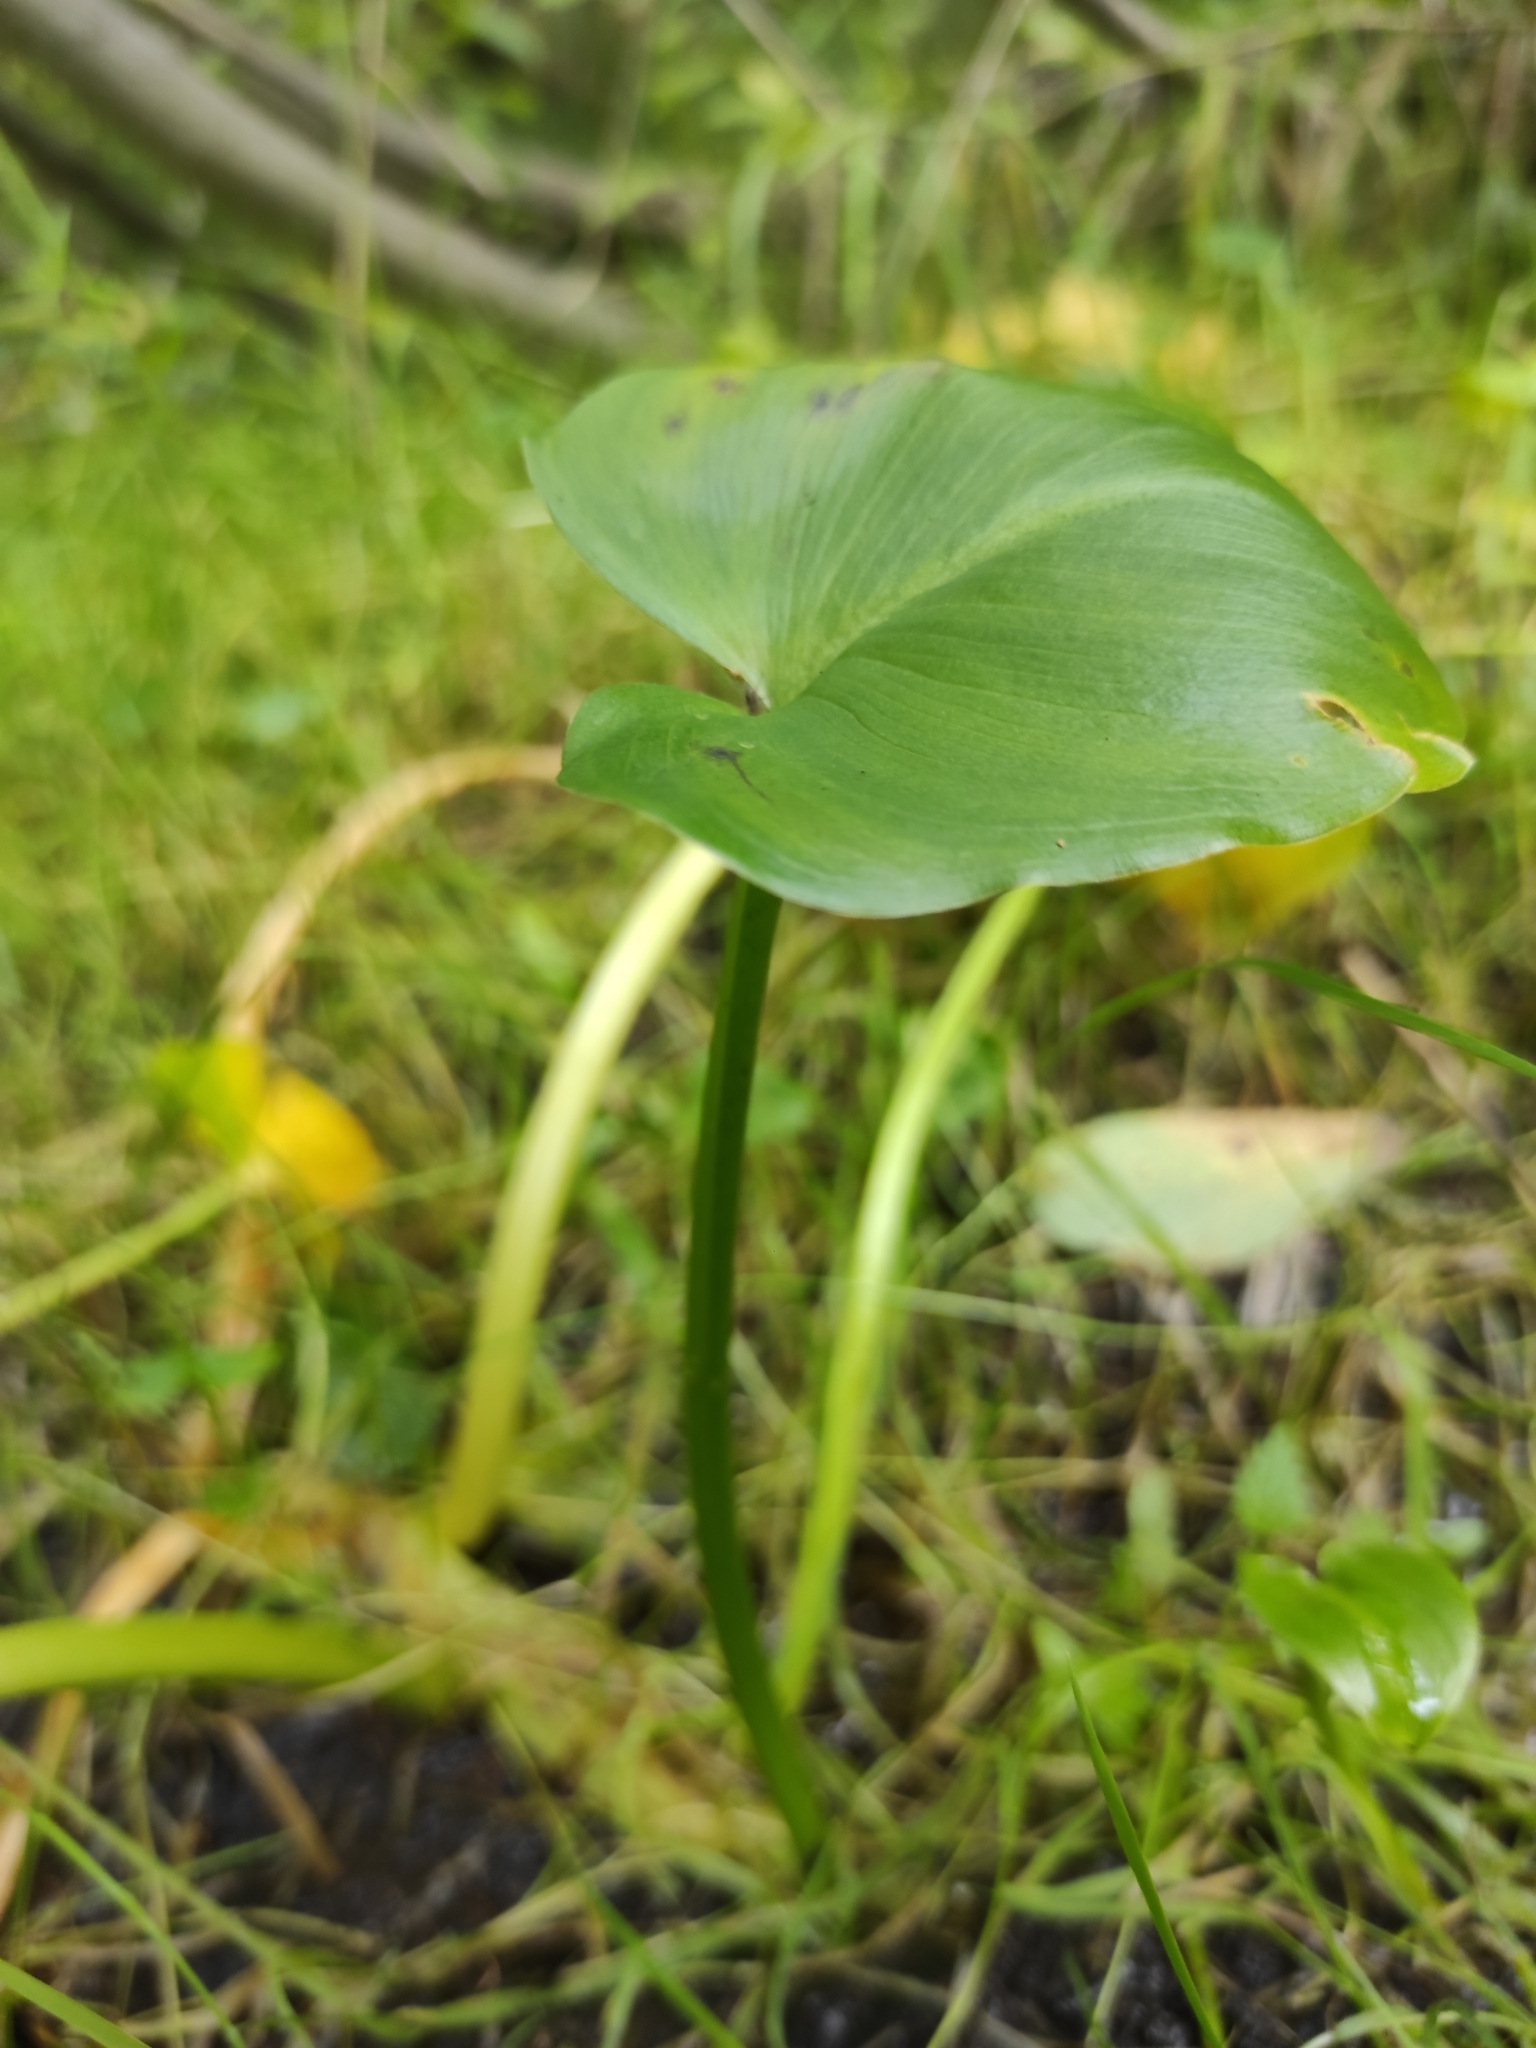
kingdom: Plantae
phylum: Tracheophyta
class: Liliopsida
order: Alismatales
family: Araceae
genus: Calla
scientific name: Calla palustris
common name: Bog arum
